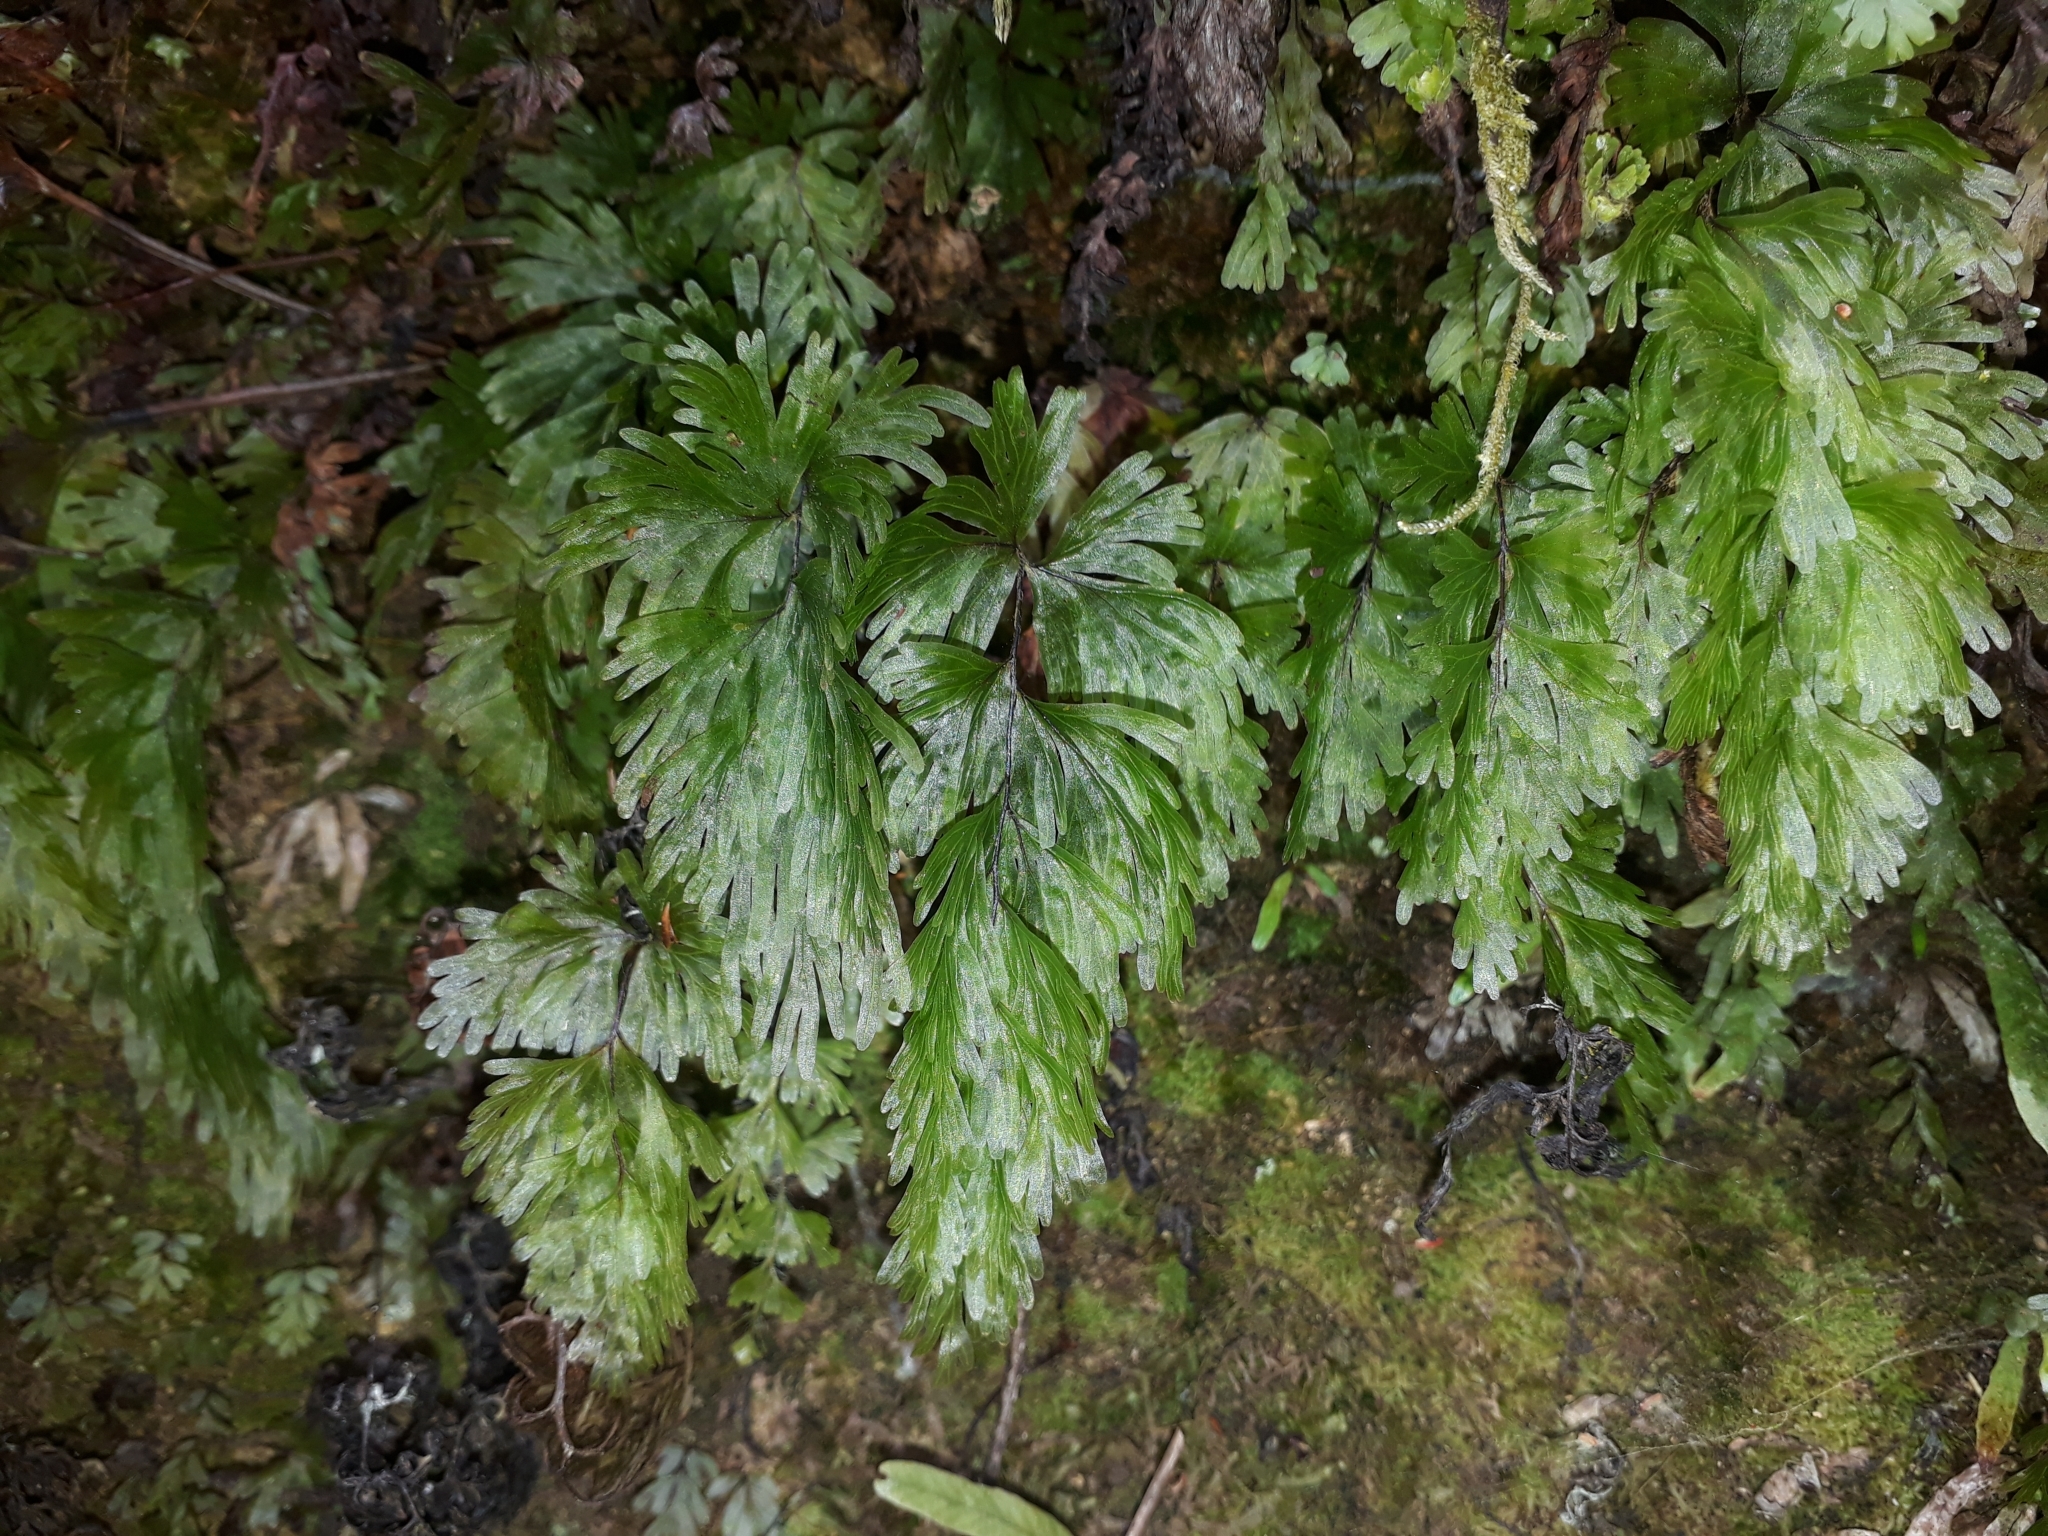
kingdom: Plantae
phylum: Tracheophyta
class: Polypodiopsida
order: Hymenophyllales
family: Hymenophyllaceae
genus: Hymenophyllum
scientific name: Hymenophyllum flabellatum
